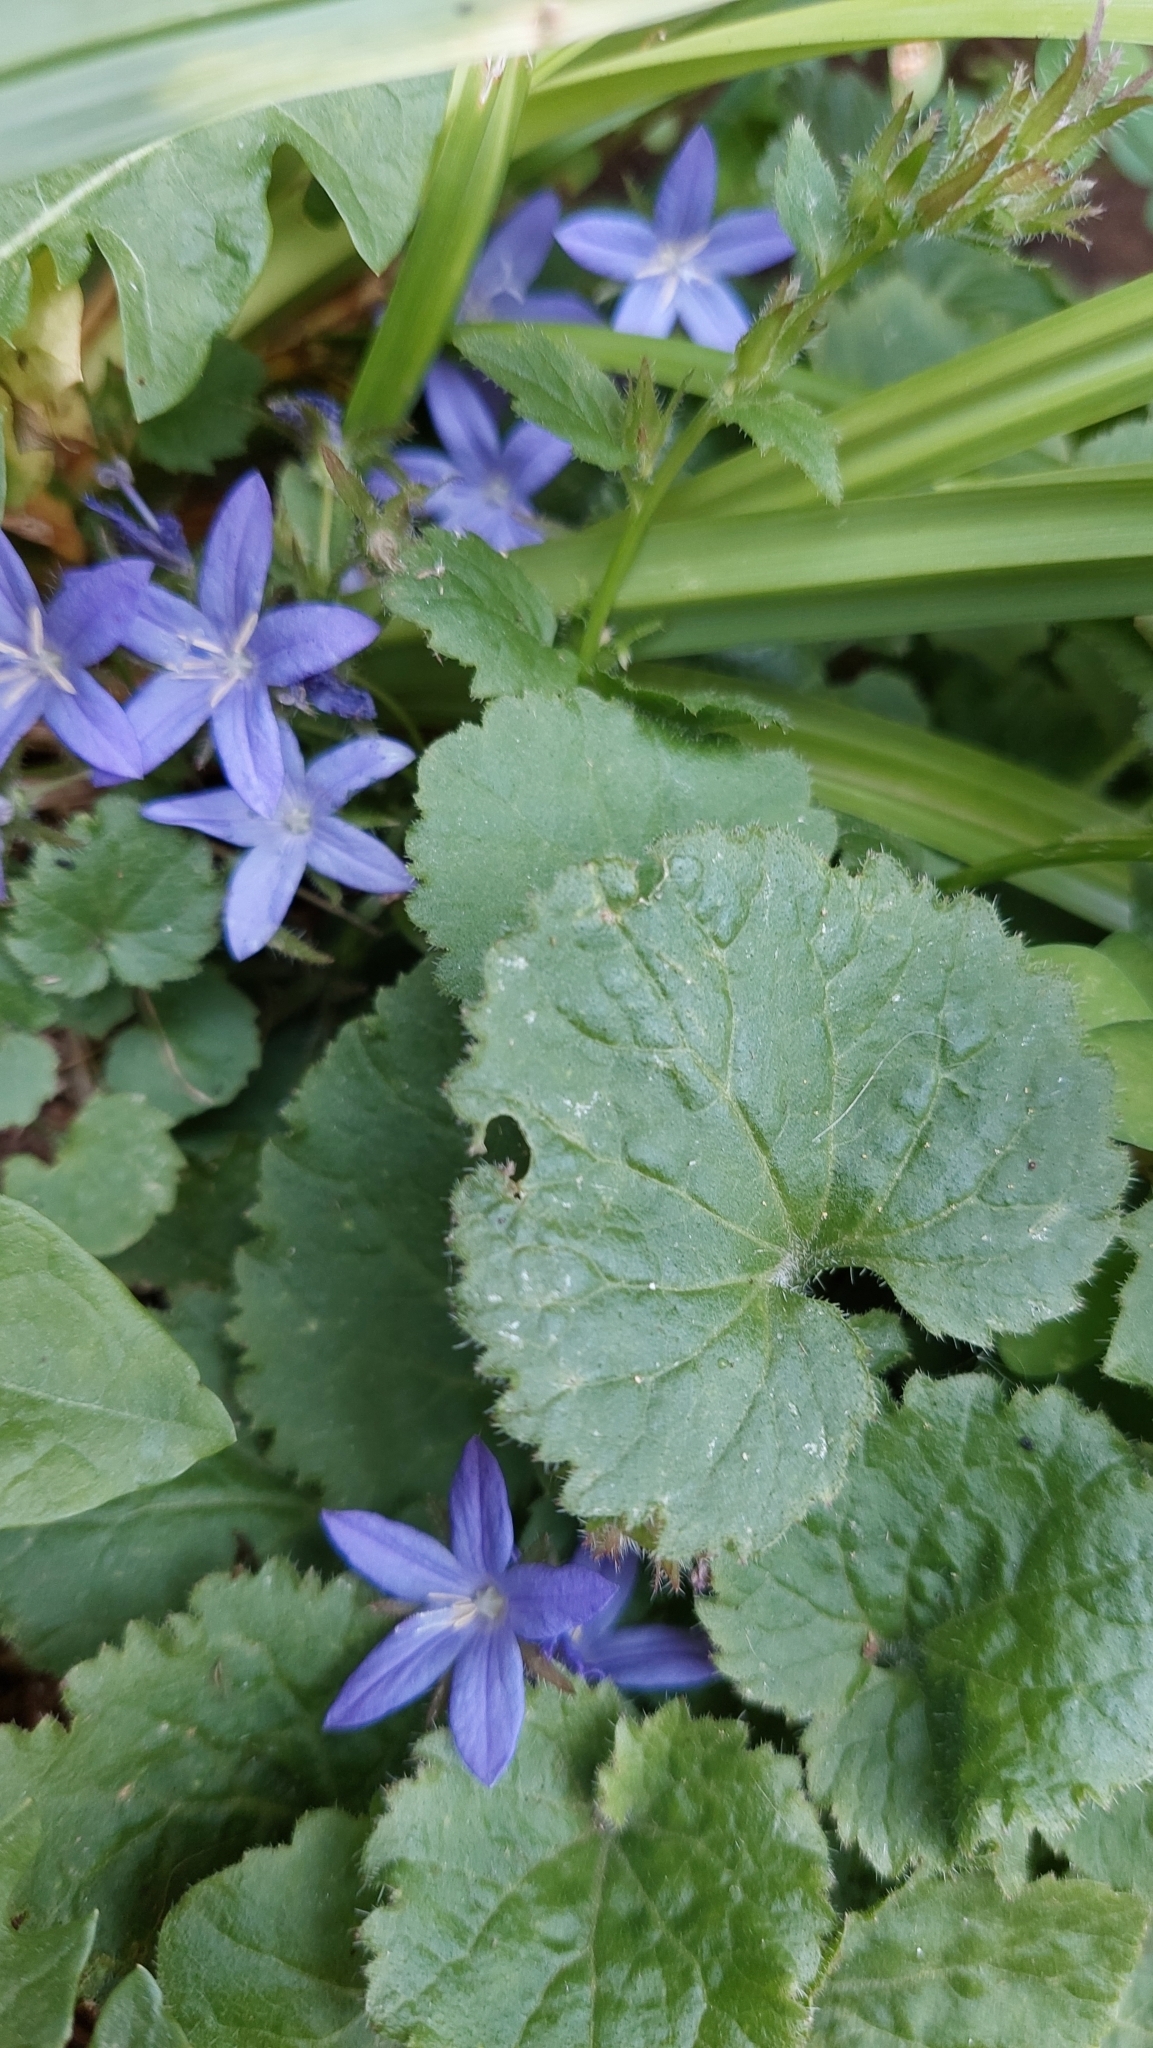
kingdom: Plantae
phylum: Tracheophyta
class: Magnoliopsida
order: Asterales
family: Campanulaceae
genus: Campanula
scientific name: Campanula poscharskyana
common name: Trailing bellflower
